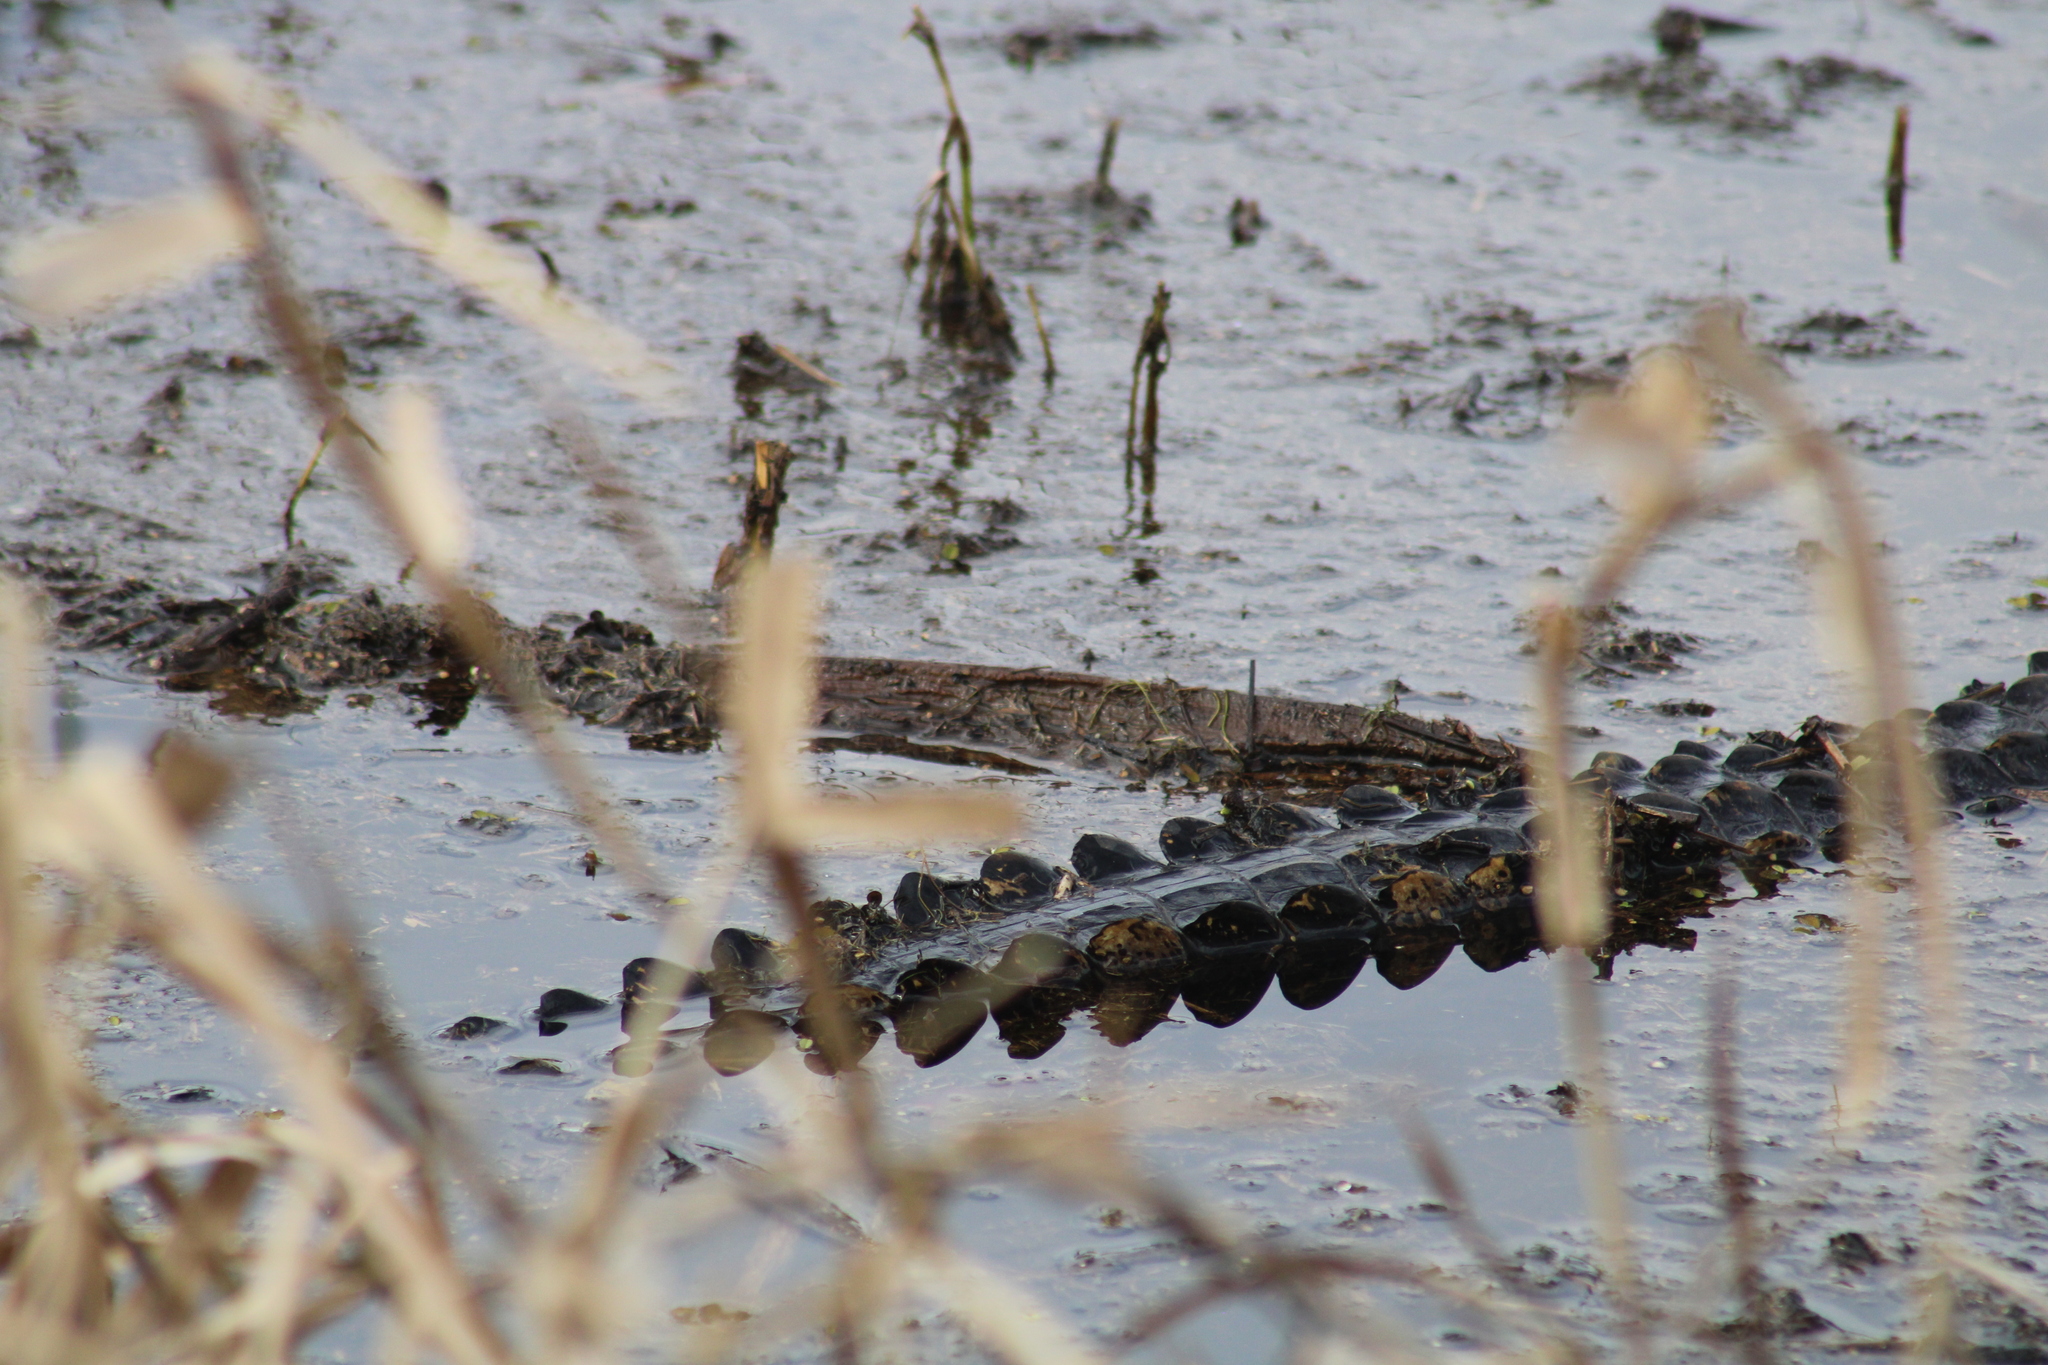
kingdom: Animalia
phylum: Chordata
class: Crocodylia
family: Alligatoridae
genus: Alligator
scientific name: Alligator mississippiensis
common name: American alligator
